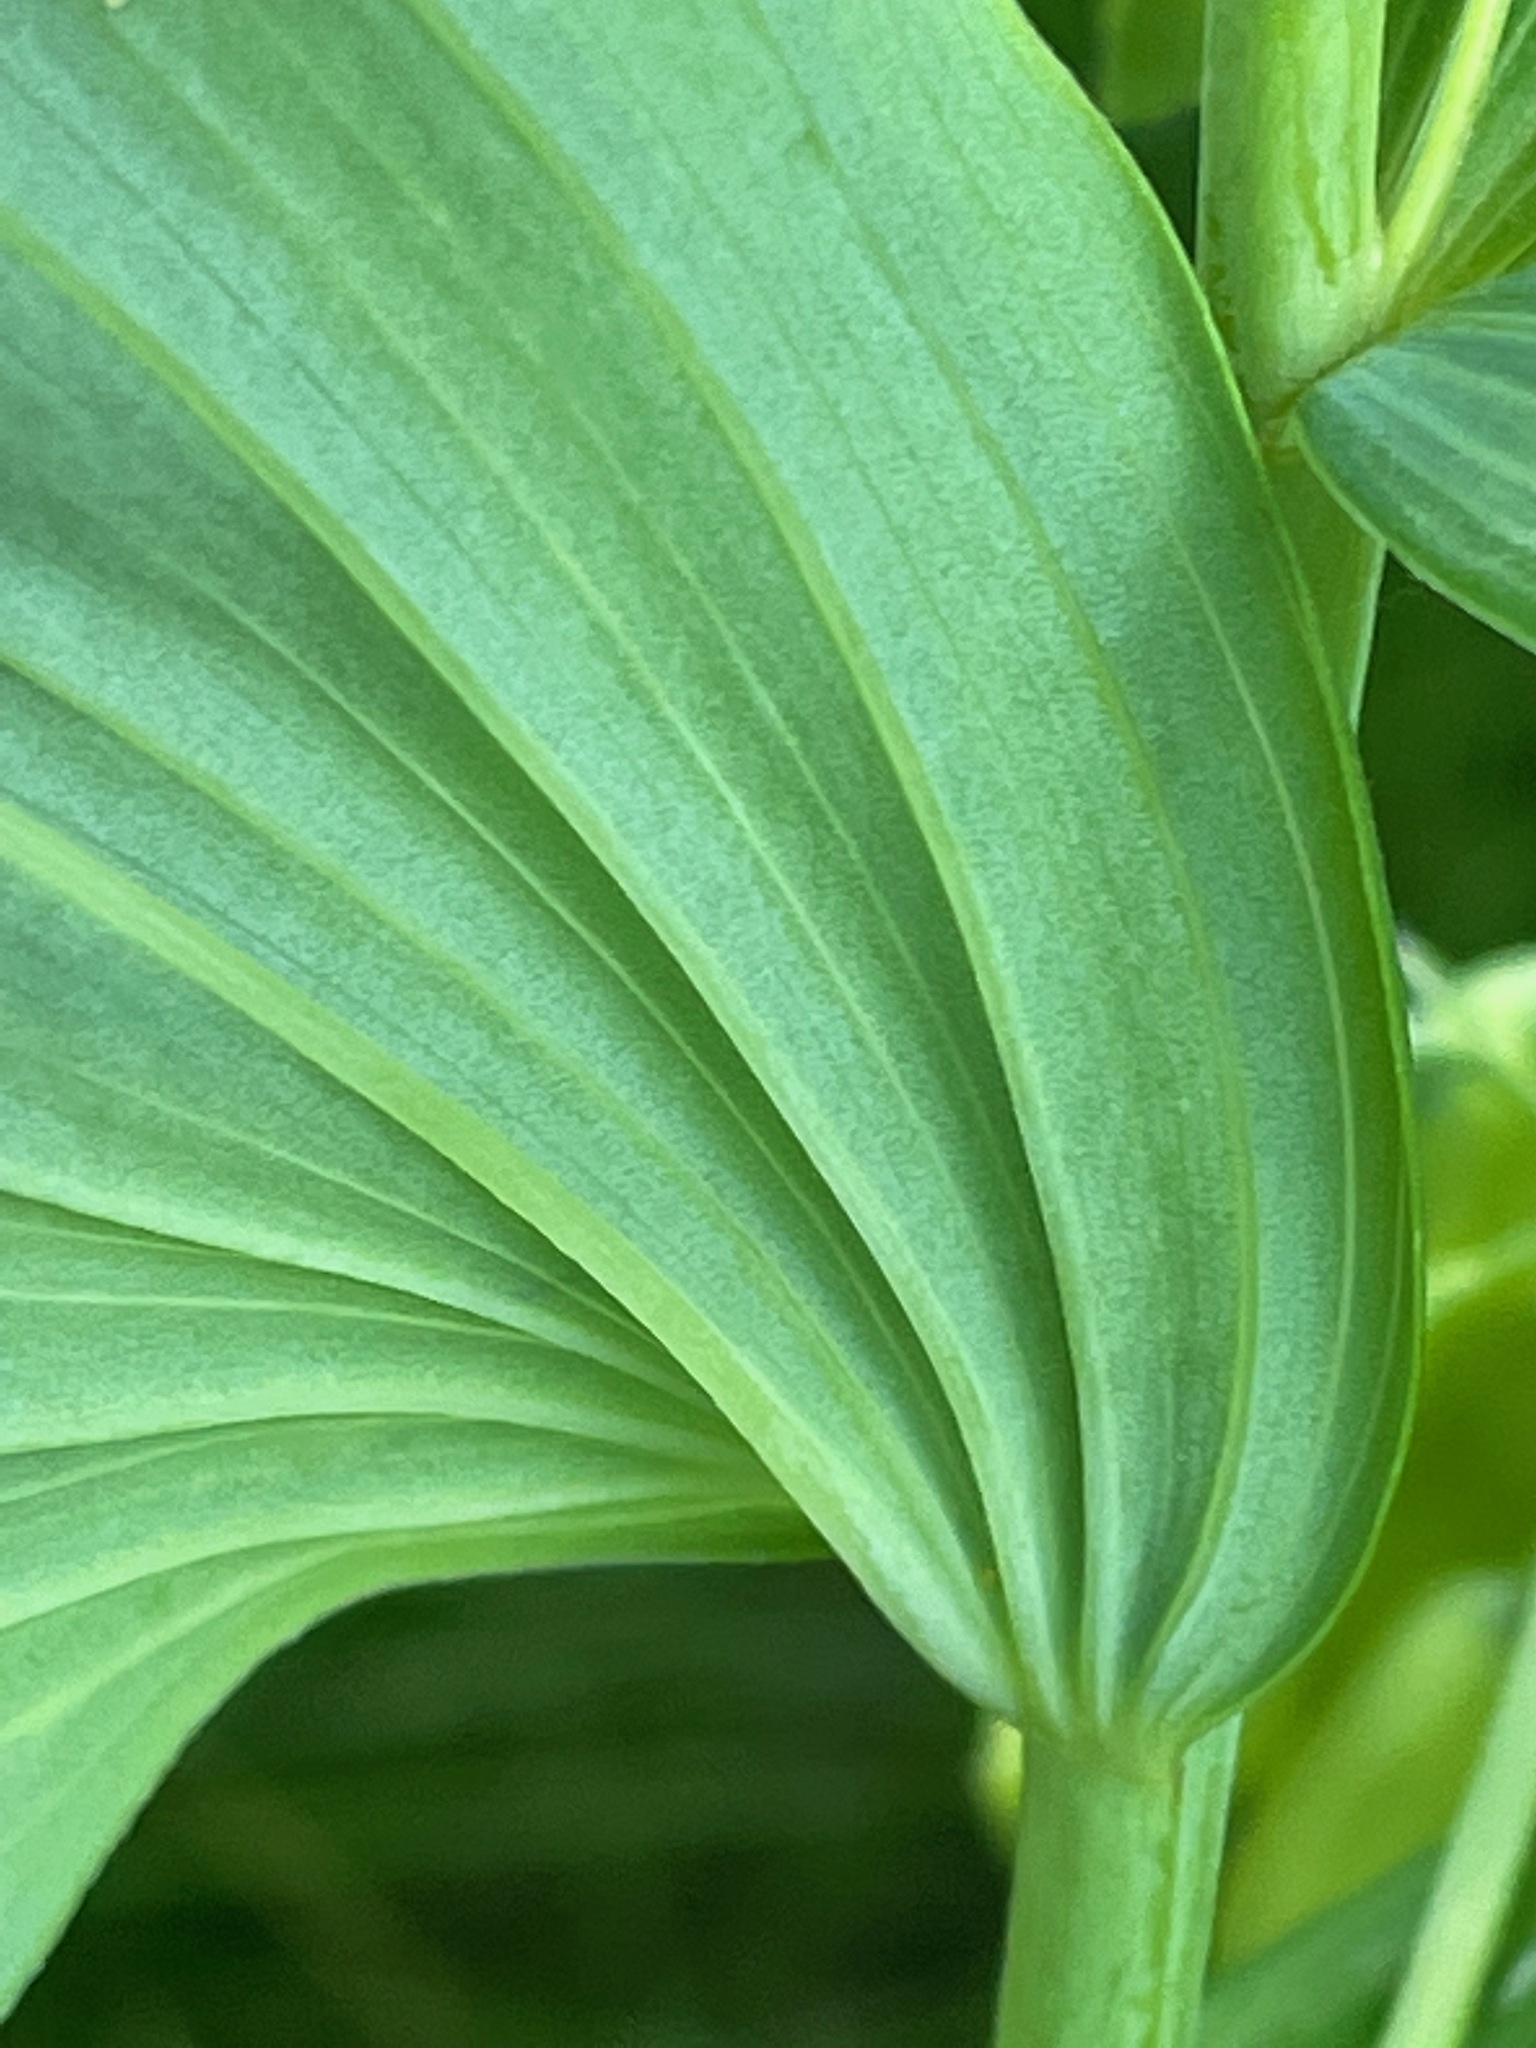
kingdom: Plantae
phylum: Tracheophyta
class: Liliopsida
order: Asparagales
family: Asparagaceae
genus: Polygonatum
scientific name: Polygonatum biflorum
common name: American solomon's-seal
